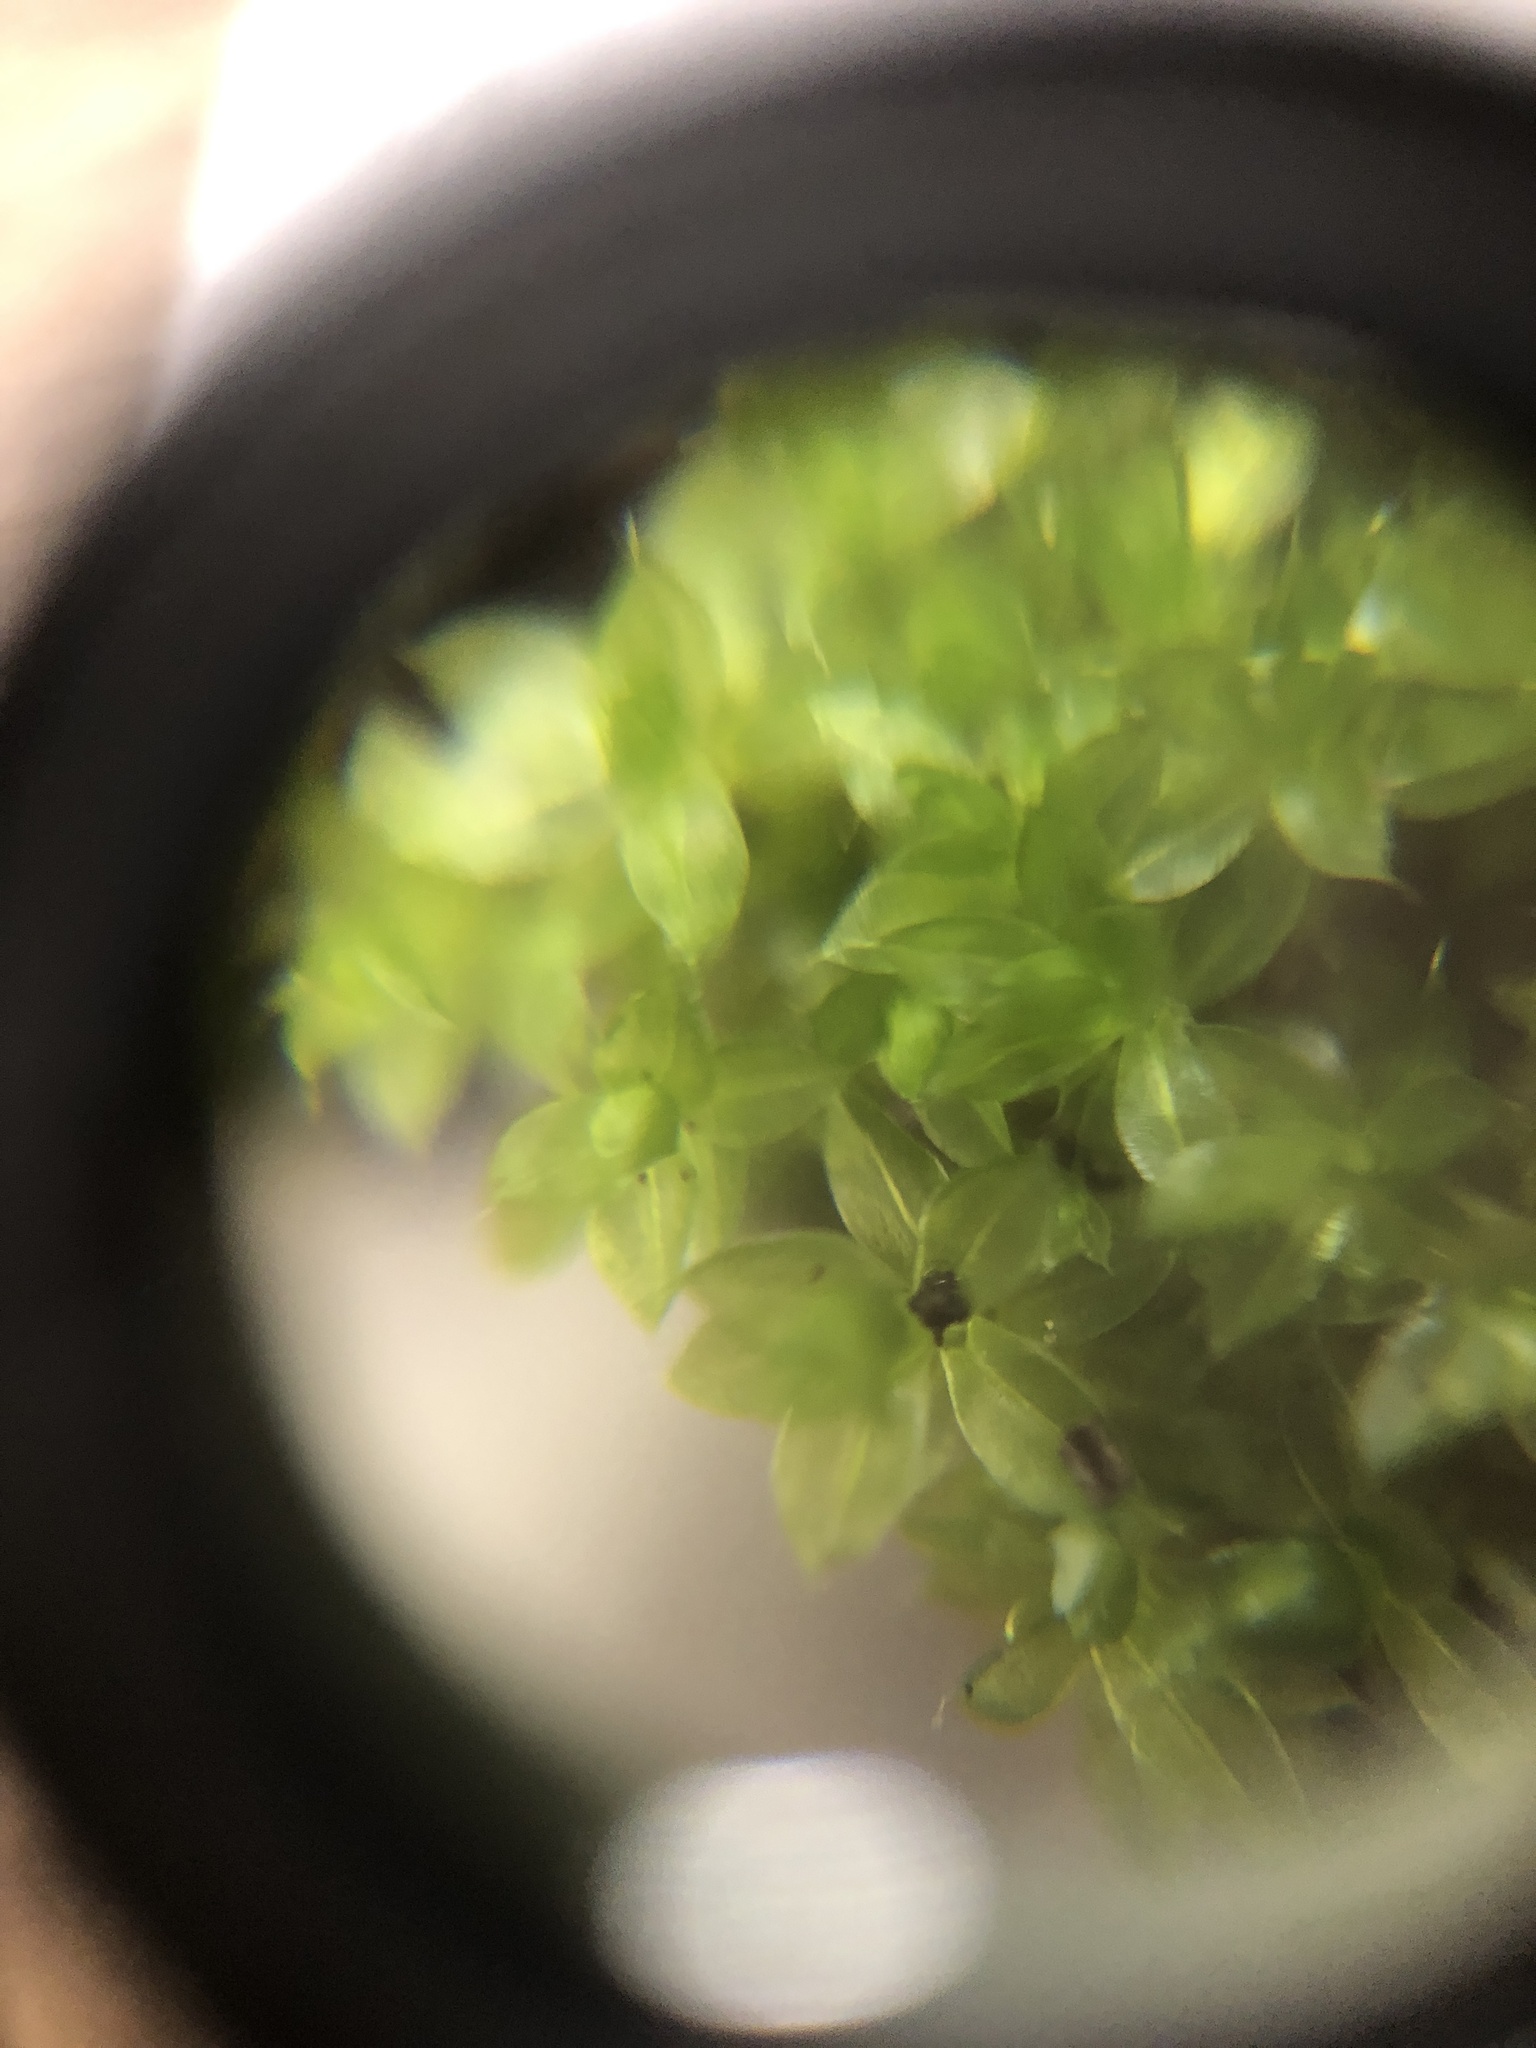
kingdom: Plantae
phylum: Bryophyta
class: Bryopsida
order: Bryales
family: Bryaceae
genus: Rosulabryum
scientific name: Rosulabryum capillare
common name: Capillary thread-moss
